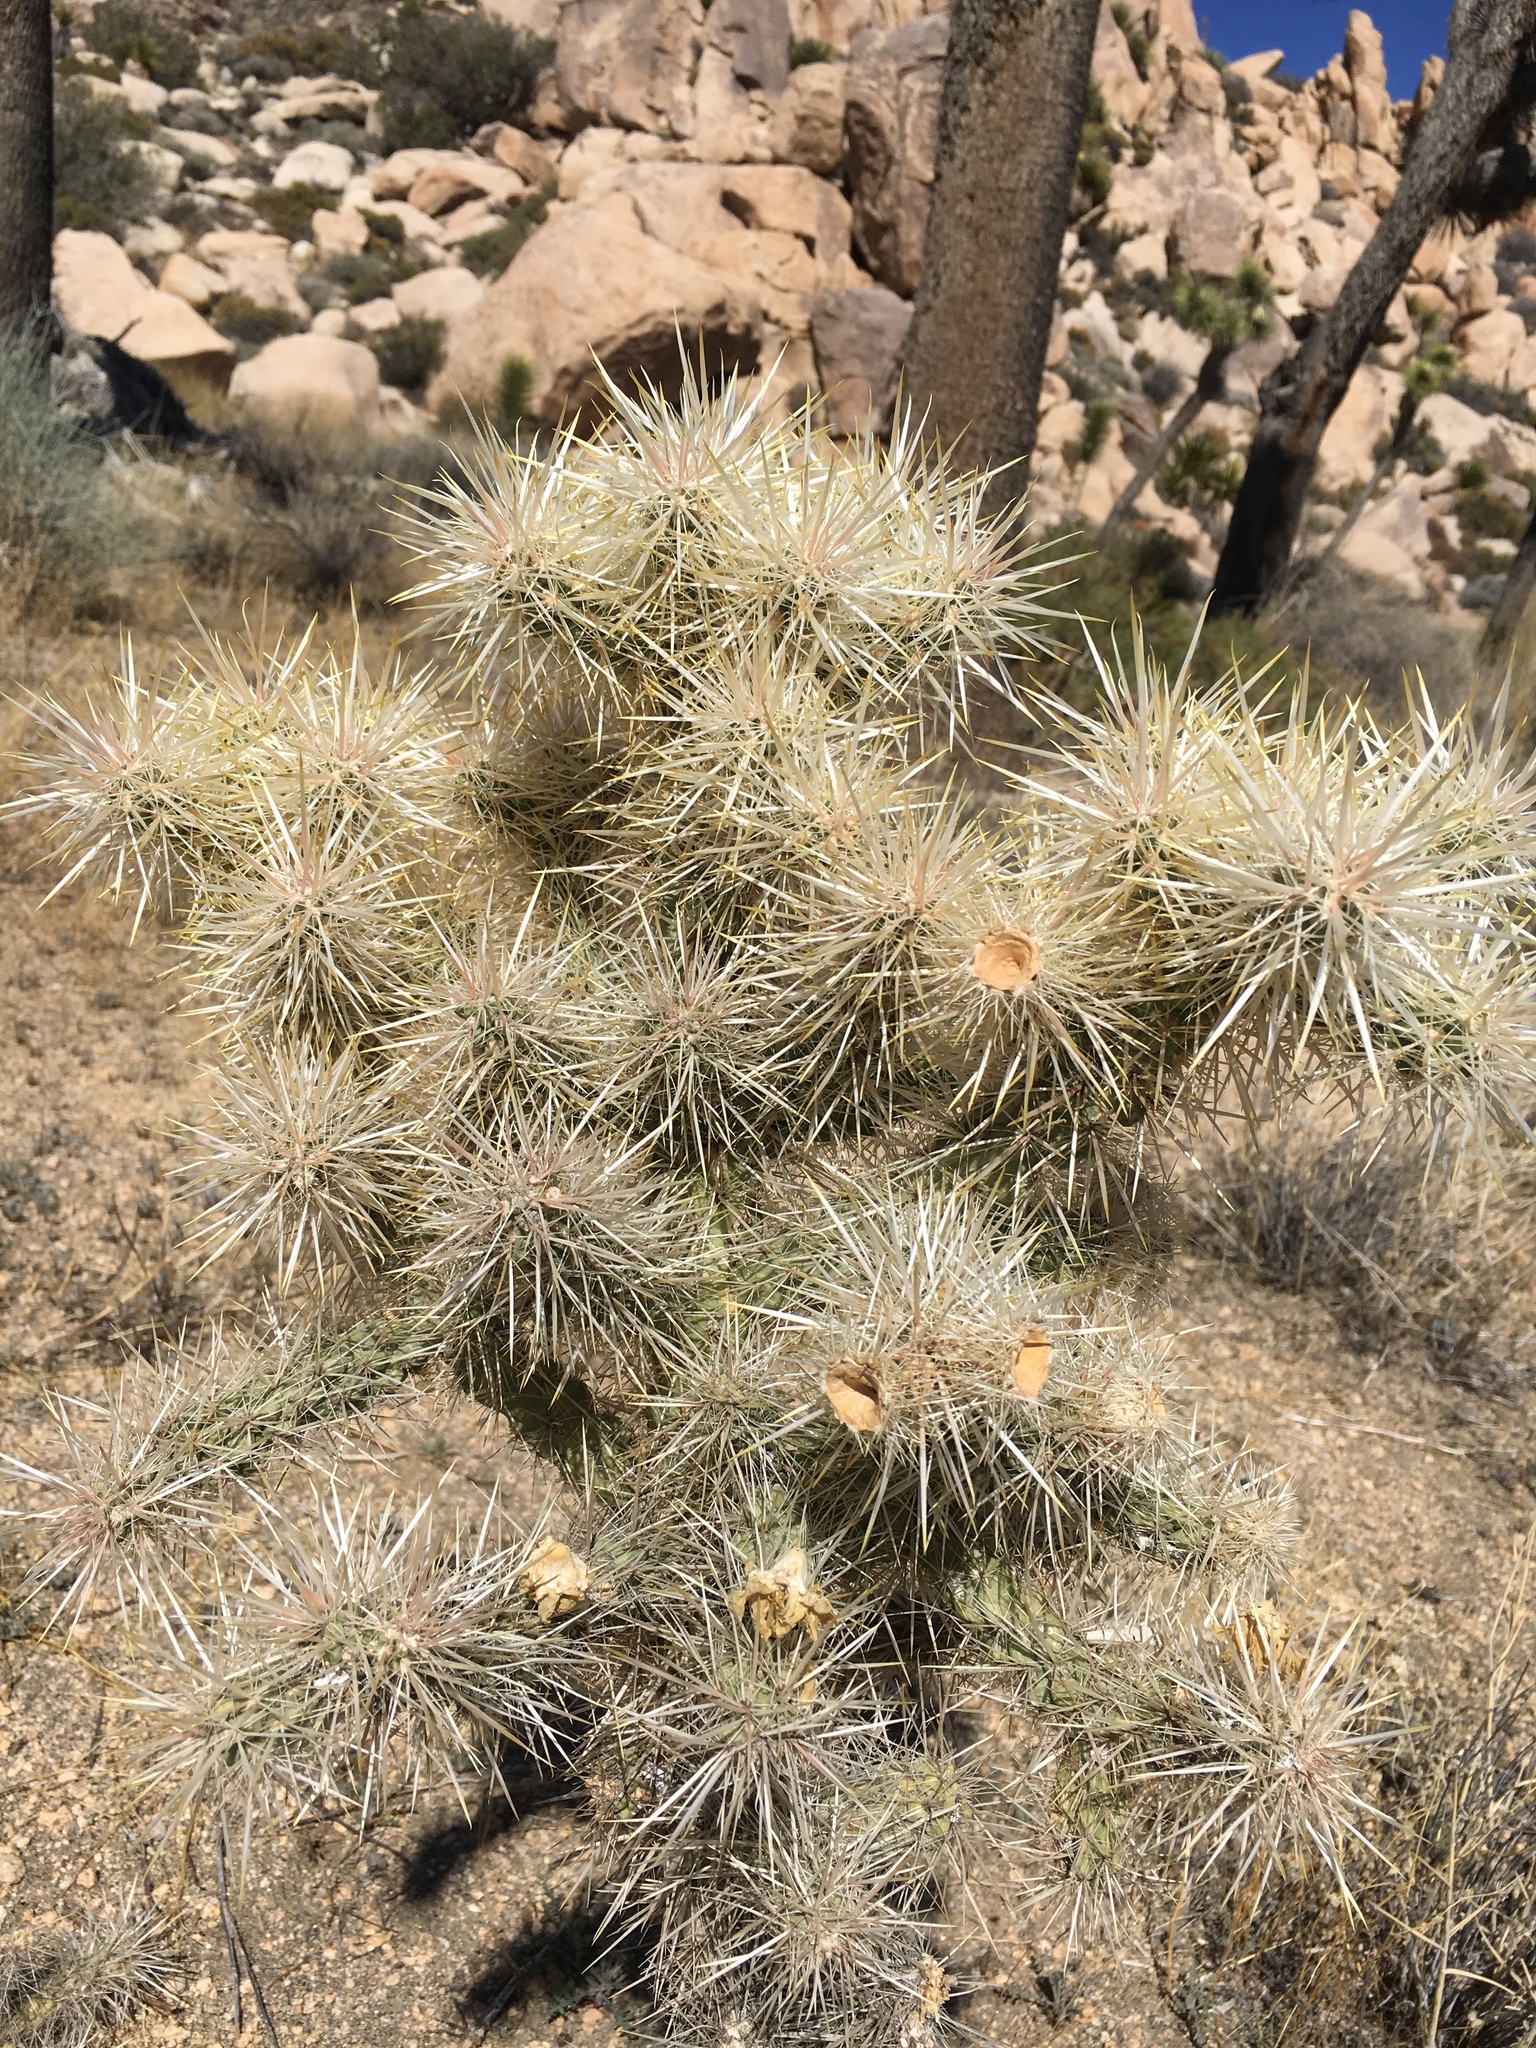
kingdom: Plantae
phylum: Tracheophyta
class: Magnoliopsida
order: Caryophyllales
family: Cactaceae
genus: Cylindropuntia
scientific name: Cylindropuntia echinocarpa
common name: Ground cholla
